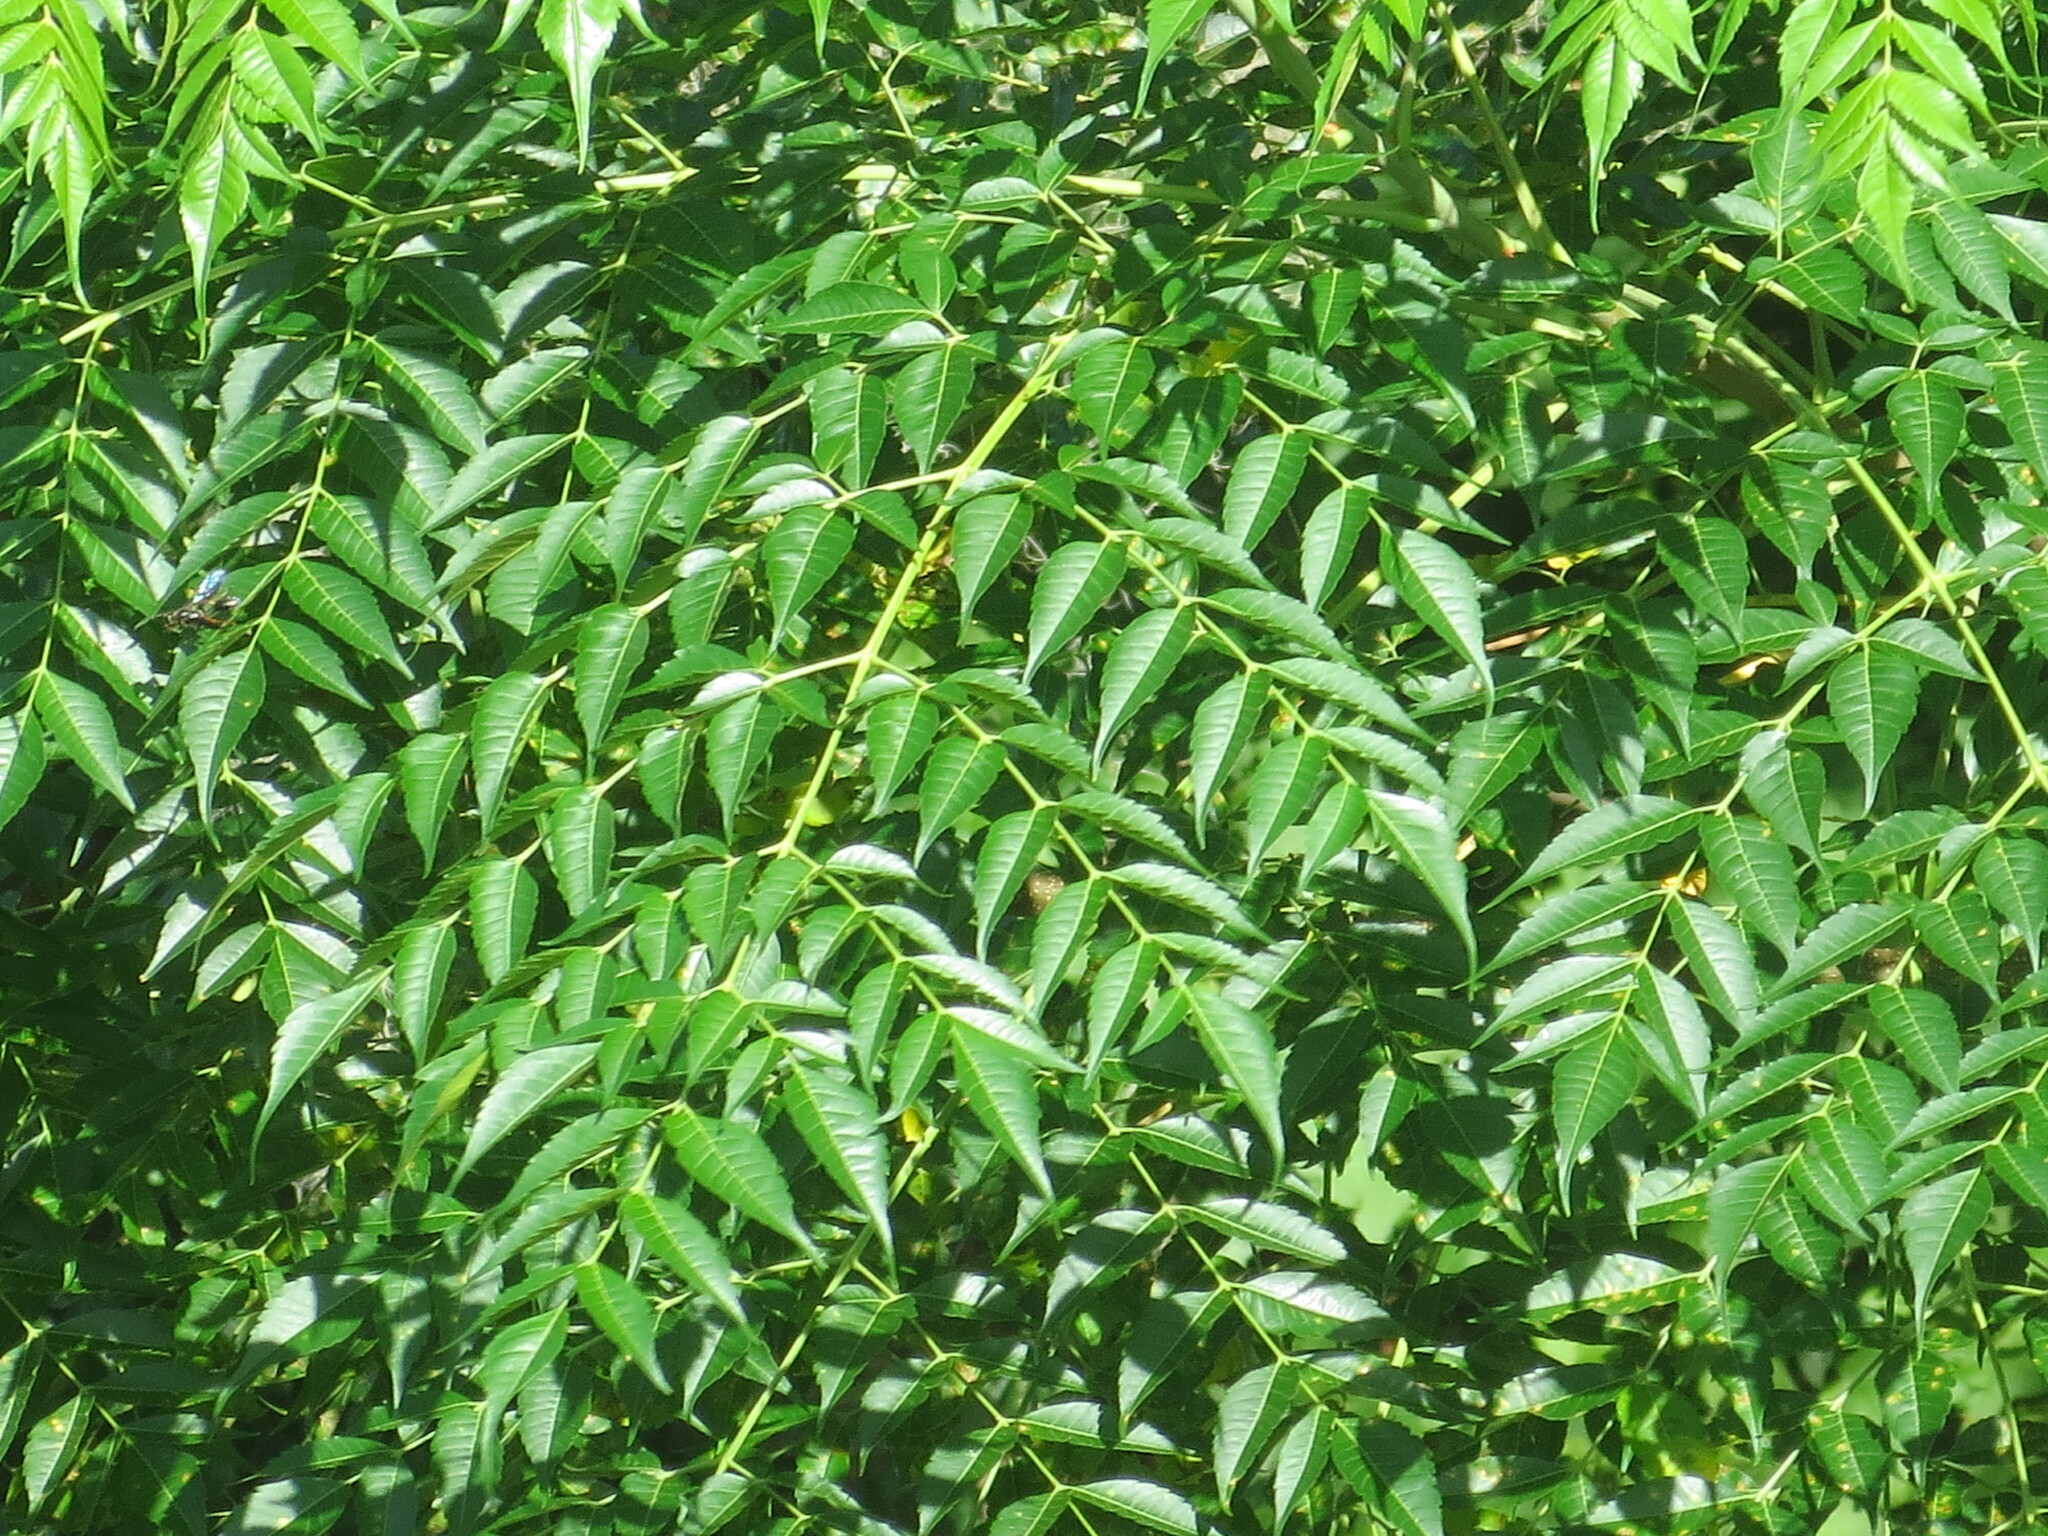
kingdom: Plantae
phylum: Tracheophyta
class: Magnoliopsida
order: Sapindales
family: Meliaceae
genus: Melia
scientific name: Melia azedarach
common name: Chinaberrytree
